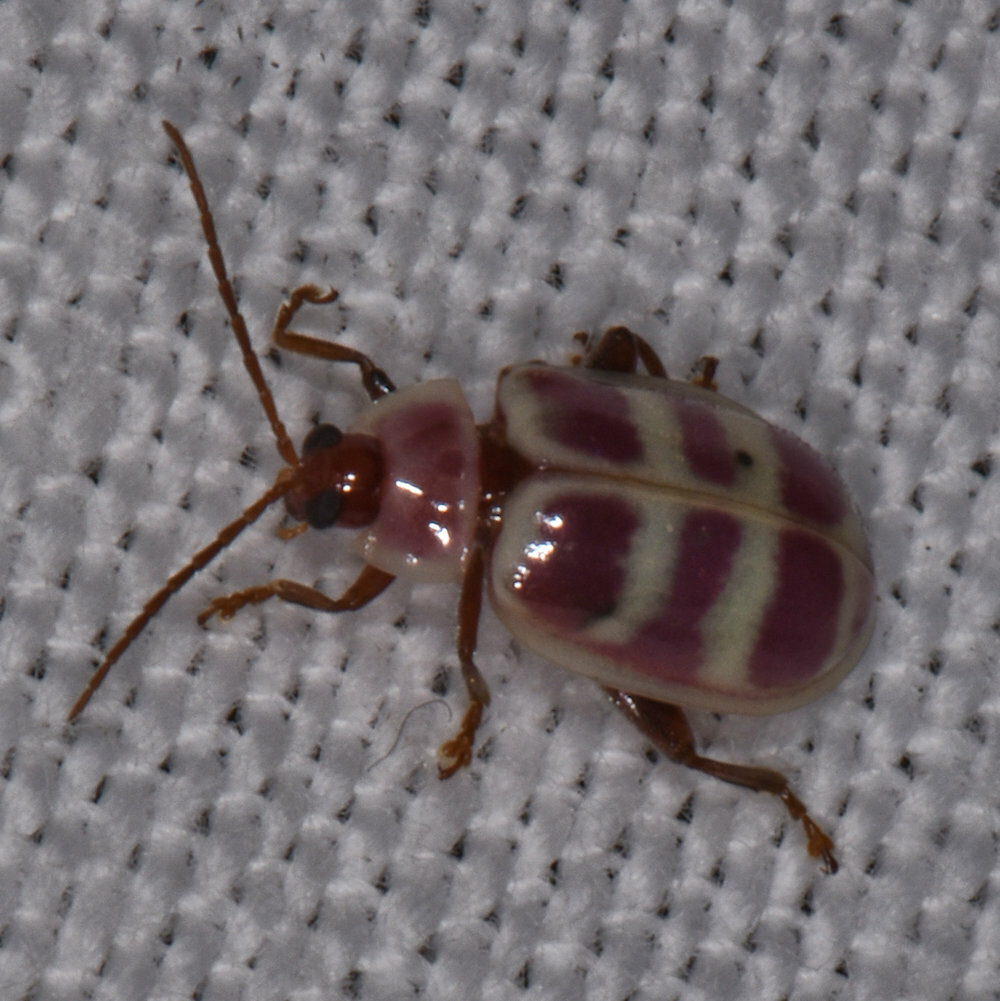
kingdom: Animalia
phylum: Arthropoda
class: Insecta
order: Coleoptera
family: Chrysomelidae
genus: Asphaera
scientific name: Asphaera
